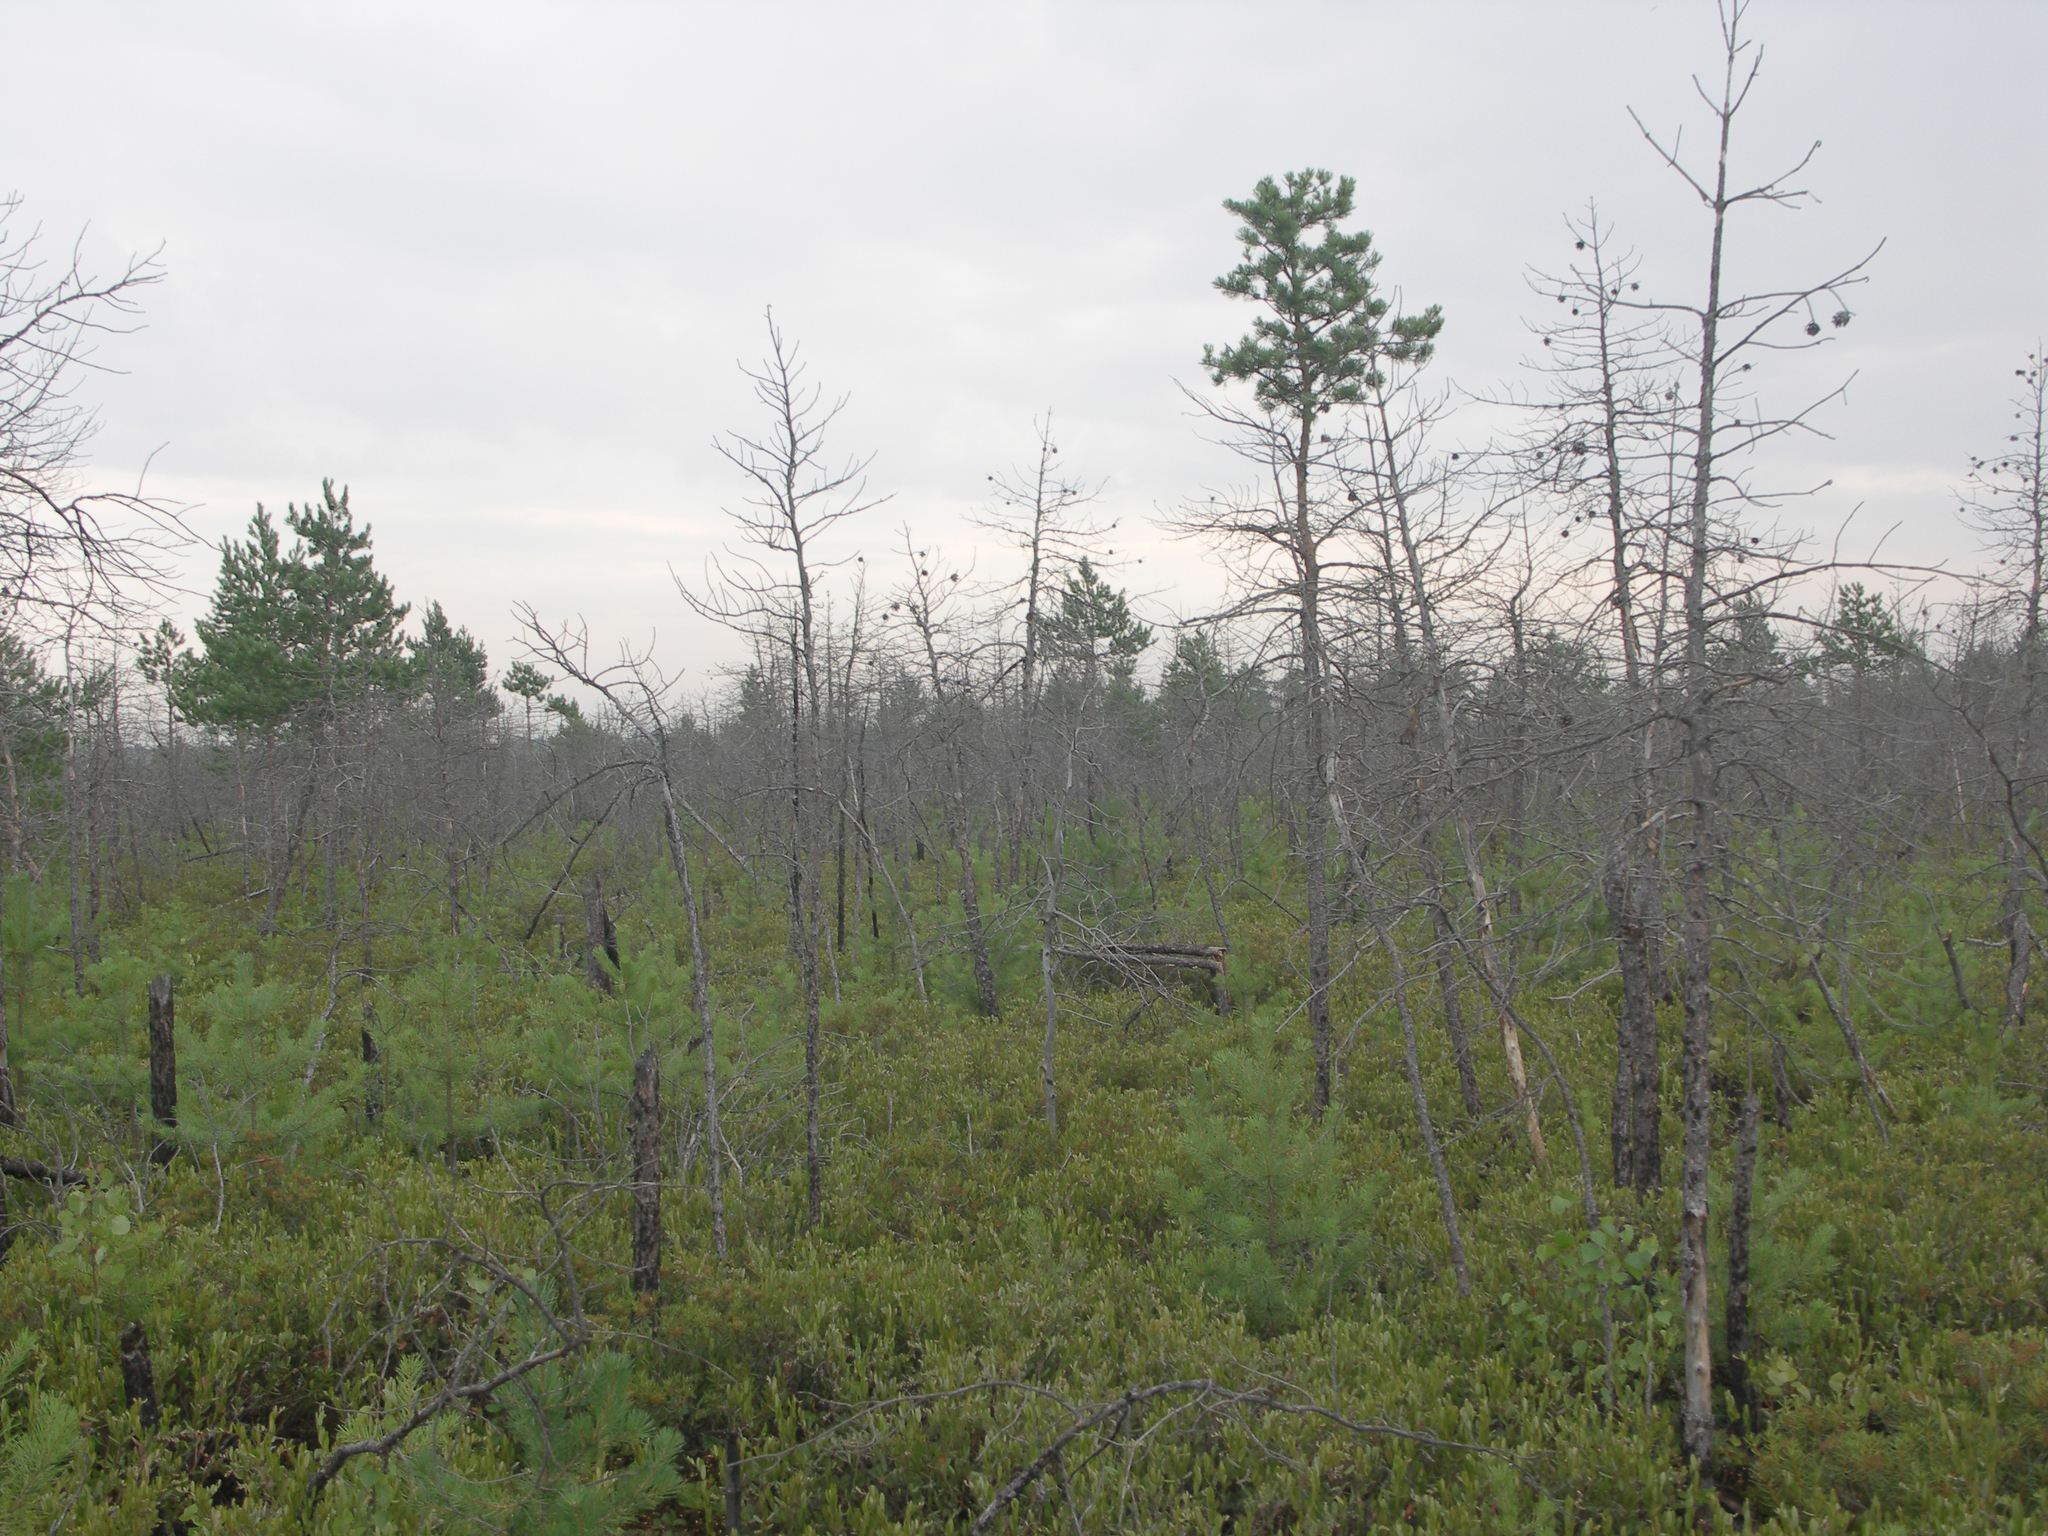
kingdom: Plantae
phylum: Tracheophyta
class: Magnoliopsida
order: Fagales
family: Betulaceae
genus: Betula
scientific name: Betula pubescens
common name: Downy birch
